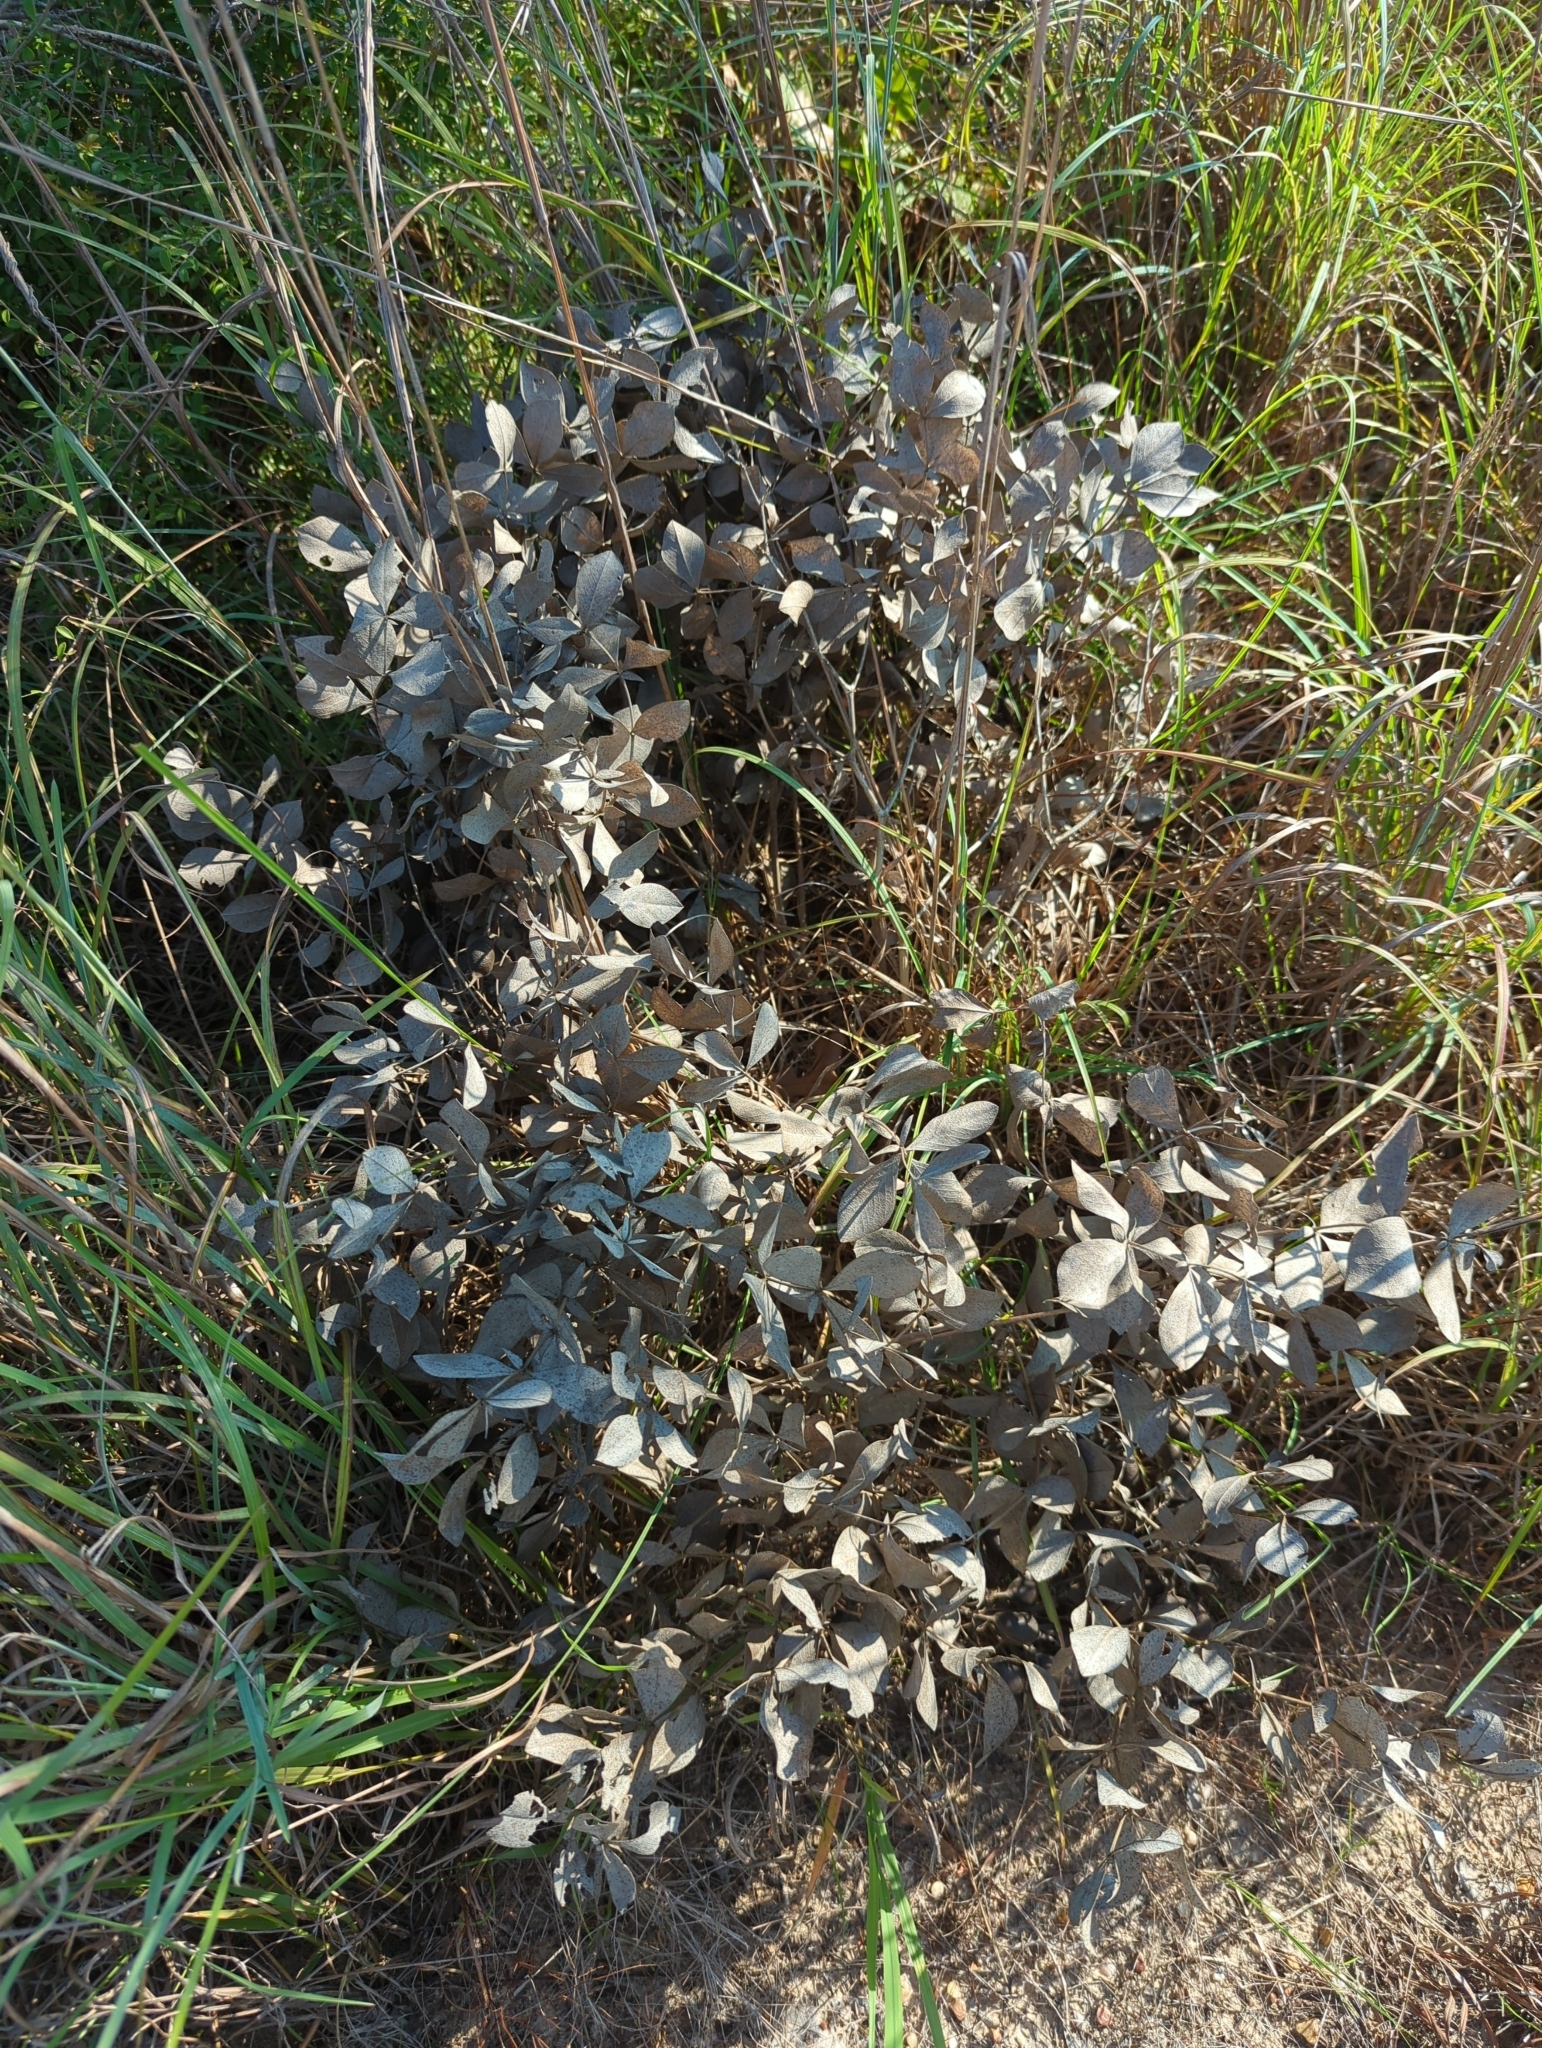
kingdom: Plantae
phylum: Tracheophyta
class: Magnoliopsida
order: Fabales
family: Fabaceae
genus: Baptisia
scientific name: Baptisia bracteata
